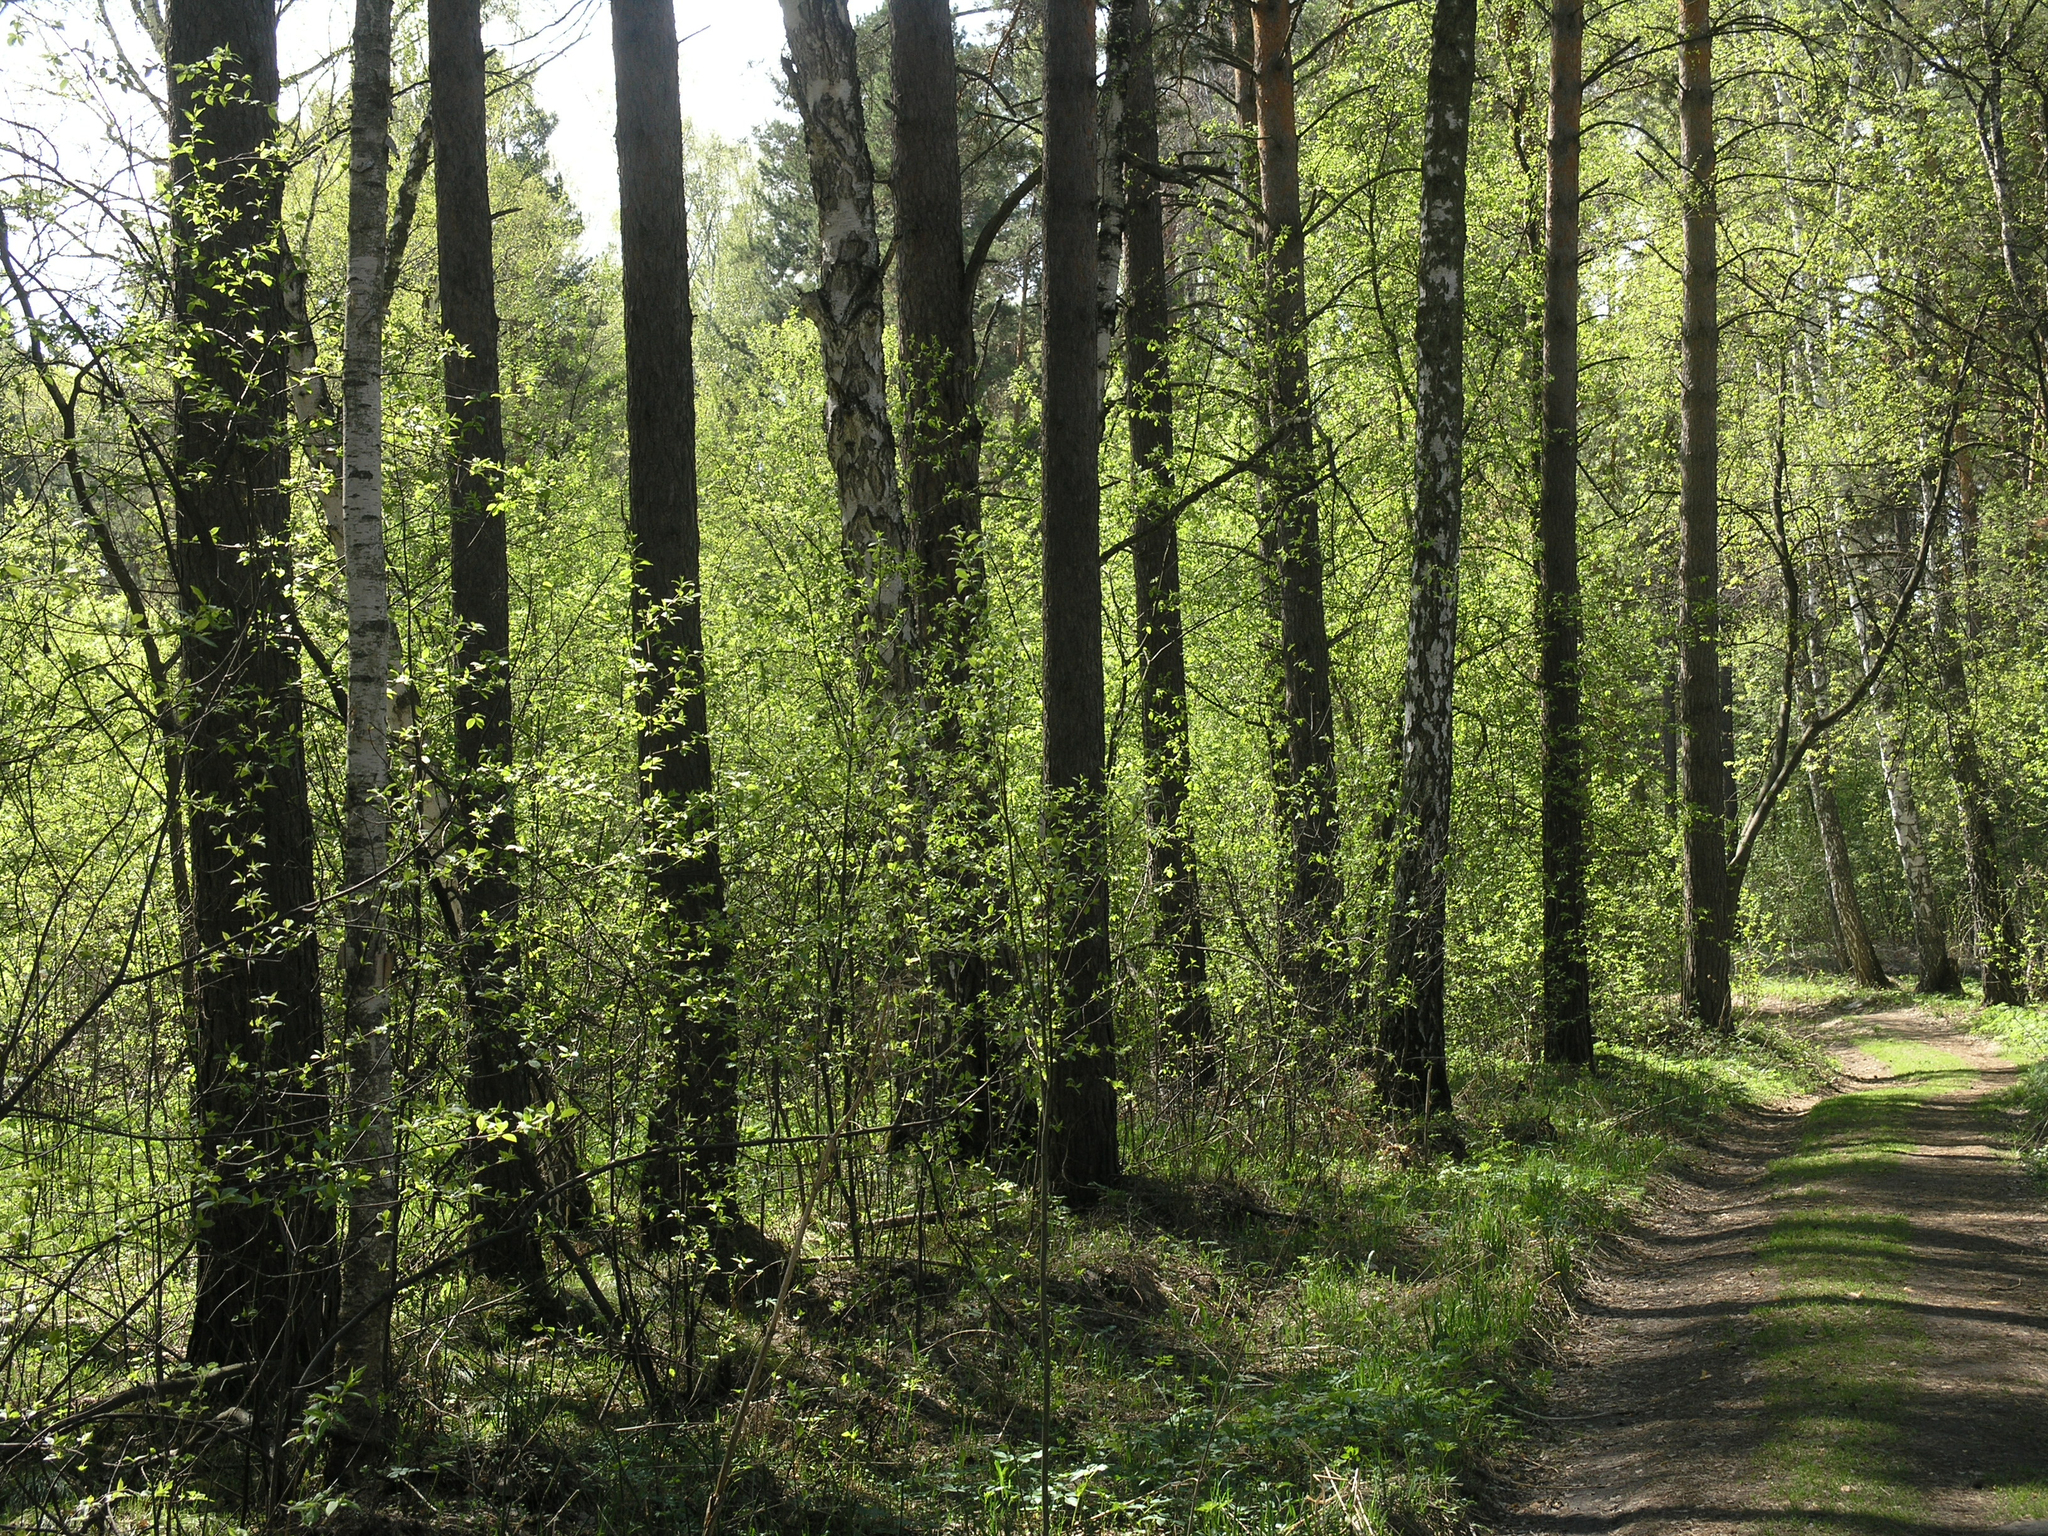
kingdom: Plantae
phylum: Tracheophyta
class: Pinopsida
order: Pinales
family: Pinaceae
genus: Pinus
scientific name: Pinus sylvestris
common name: Scots pine
